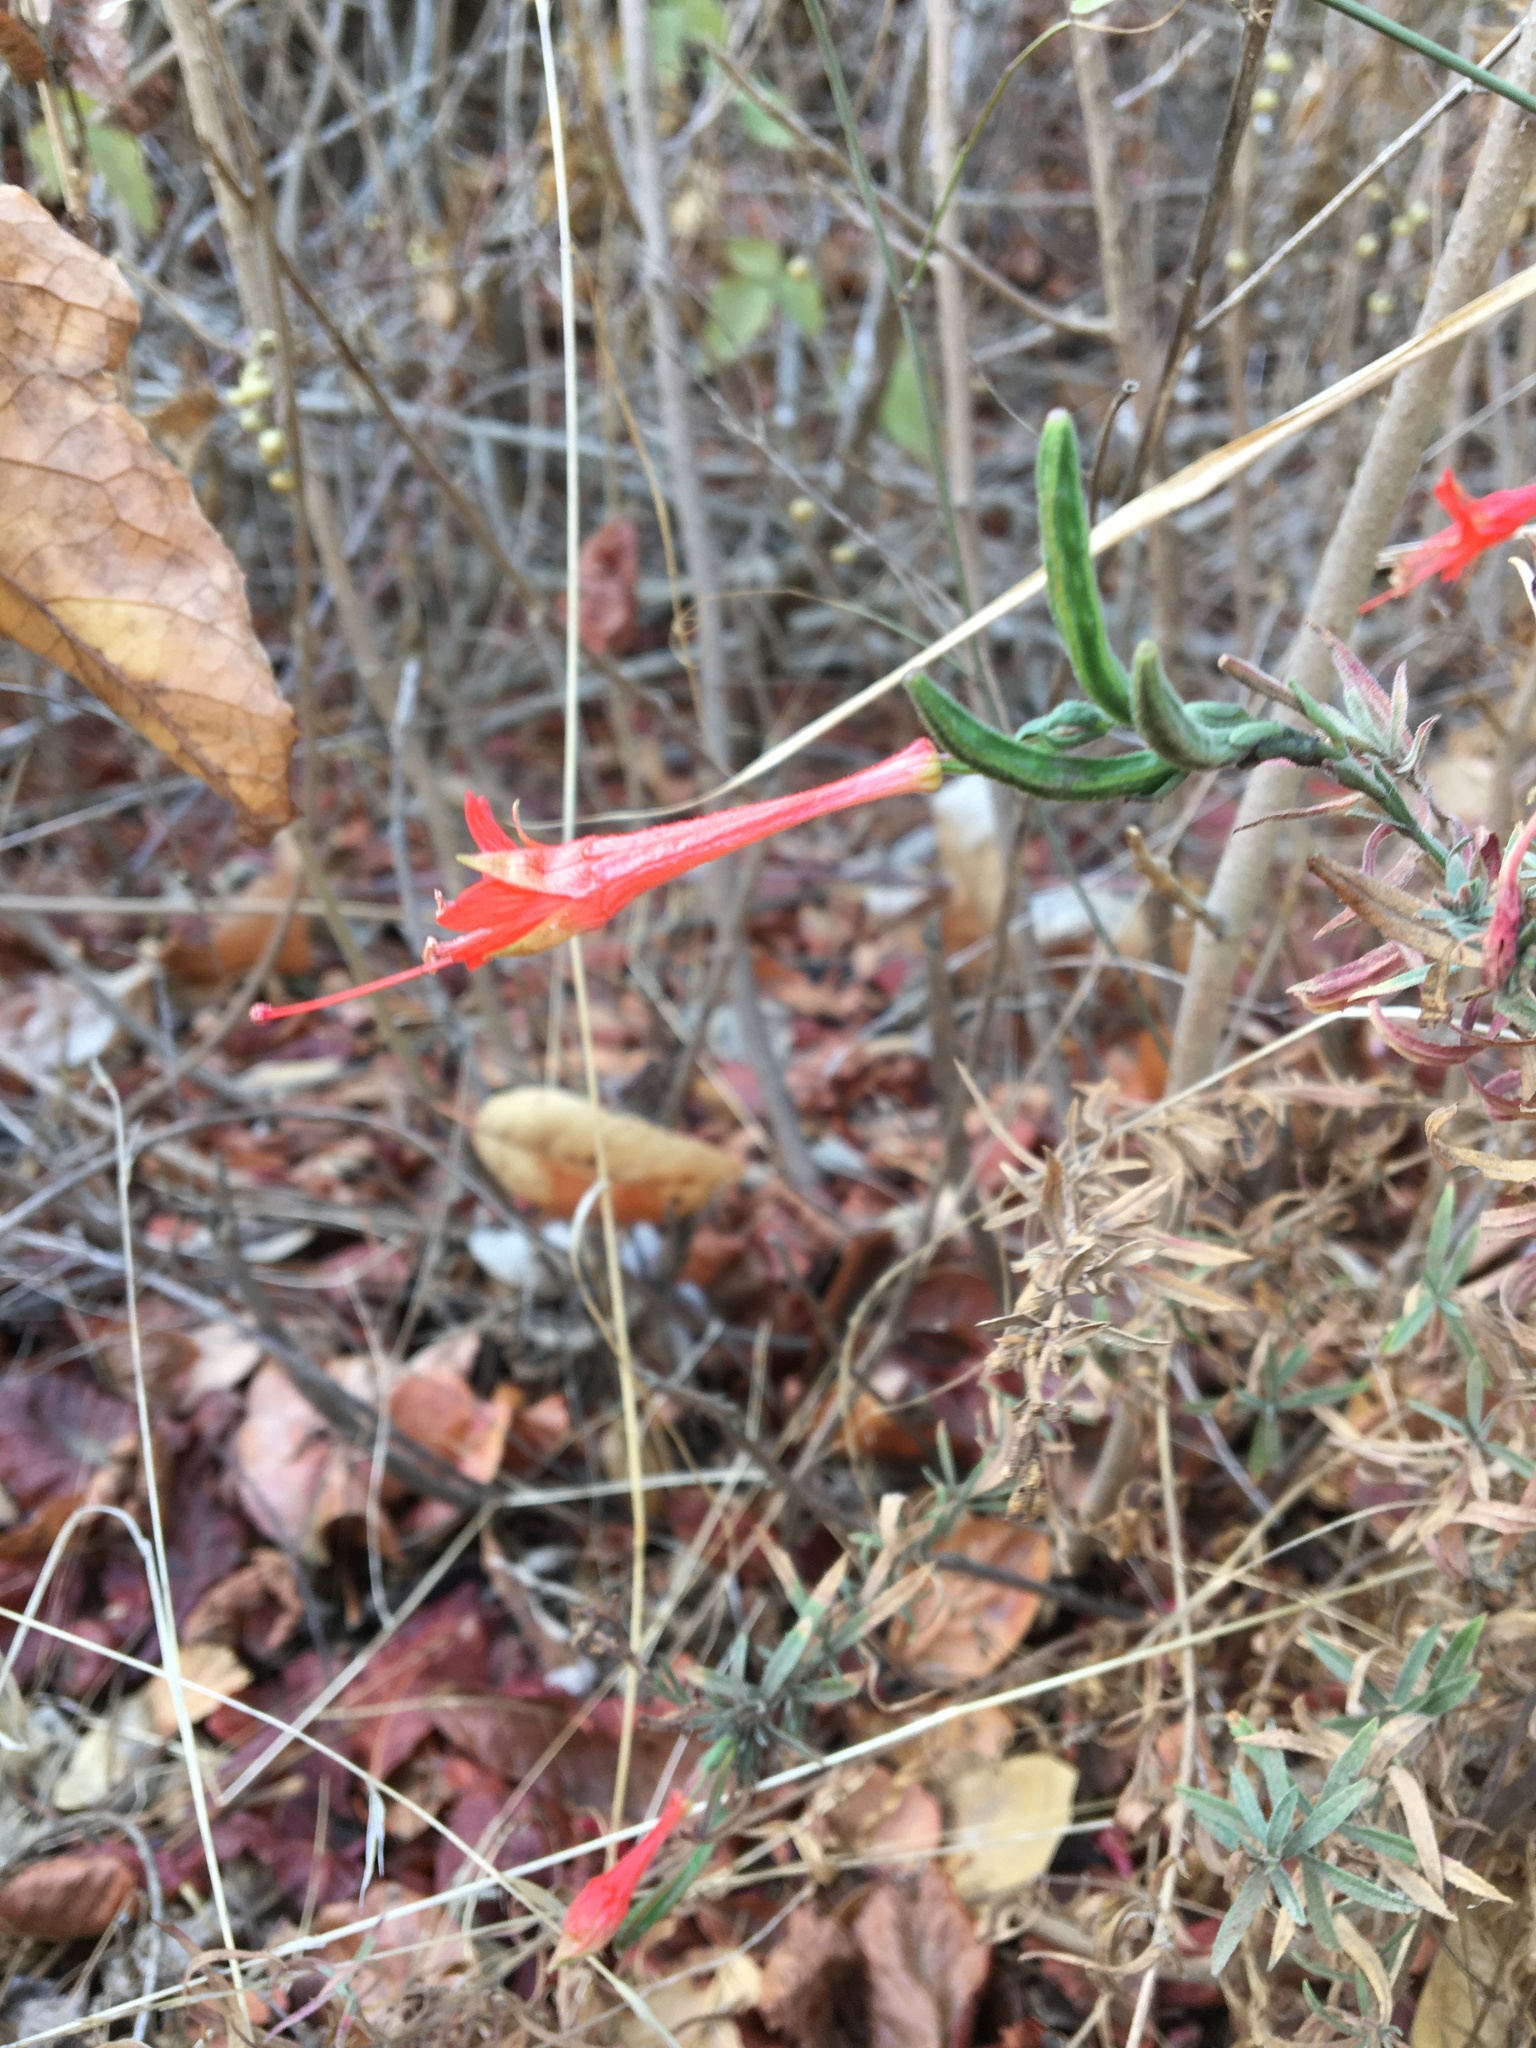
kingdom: Plantae
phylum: Tracheophyta
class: Magnoliopsida
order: Myrtales
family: Onagraceae
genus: Epilobium
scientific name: Epilobium canum
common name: California-fuchsia
